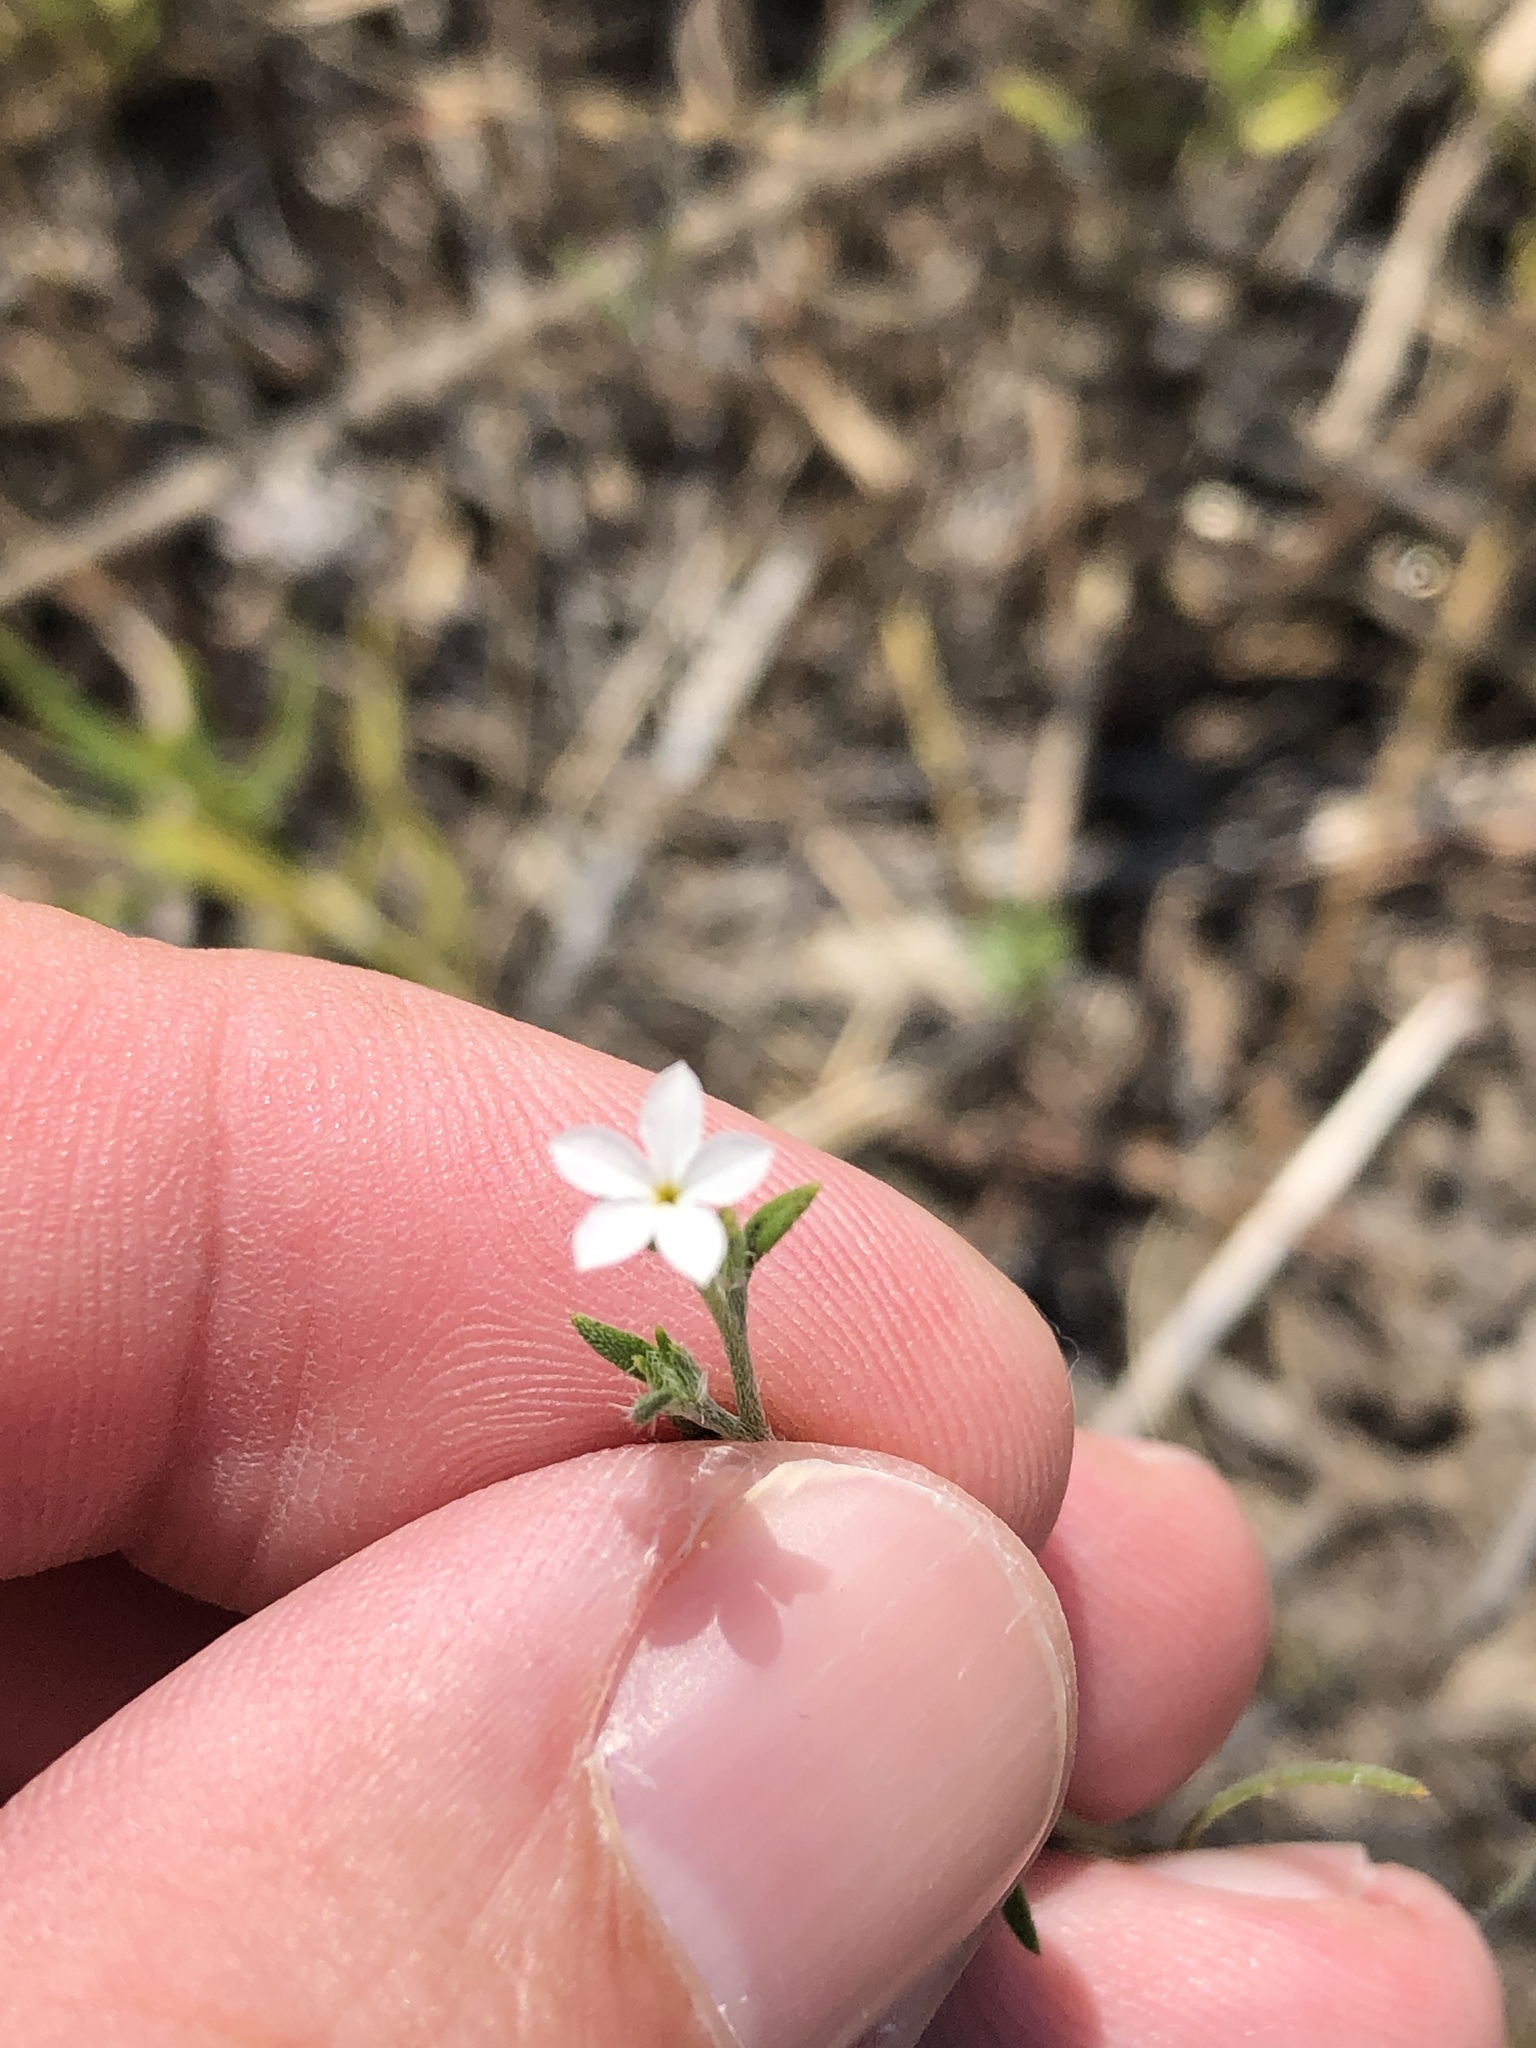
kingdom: Plantae
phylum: Tracheophyta
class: Magnoliopsida
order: Boraginales
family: Heliotropiaceae
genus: Euploca
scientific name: Euploca tenella
